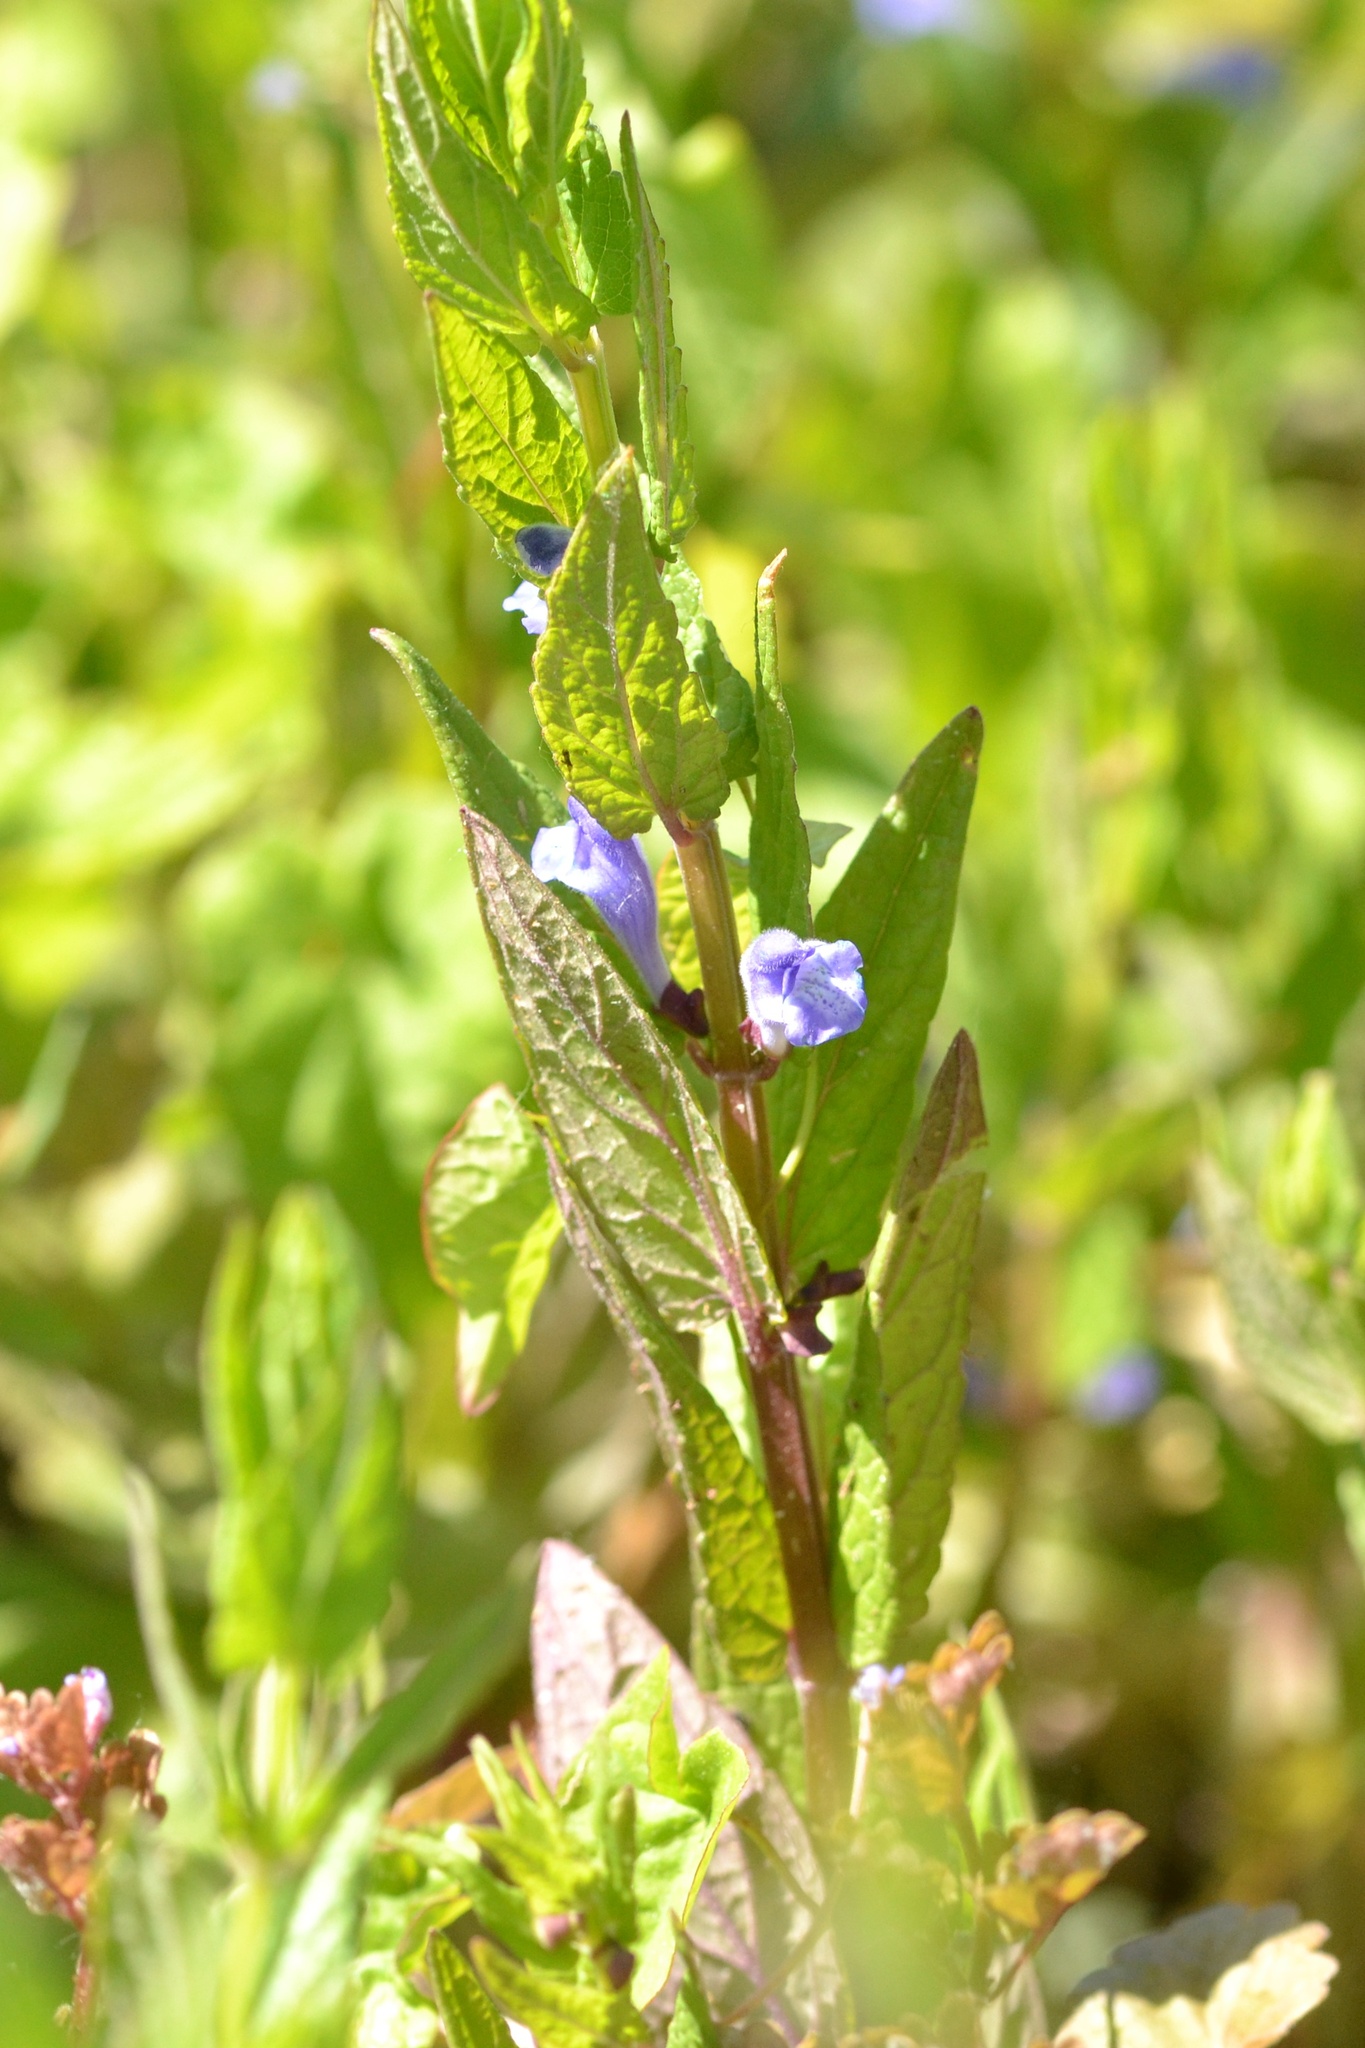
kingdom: Plantae
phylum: Tracheophyta
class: Magnoliopsida
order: Lamiales
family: Lamiaceae
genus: Scutellaria
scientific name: Scutellaria galericulata
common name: Skullcap
